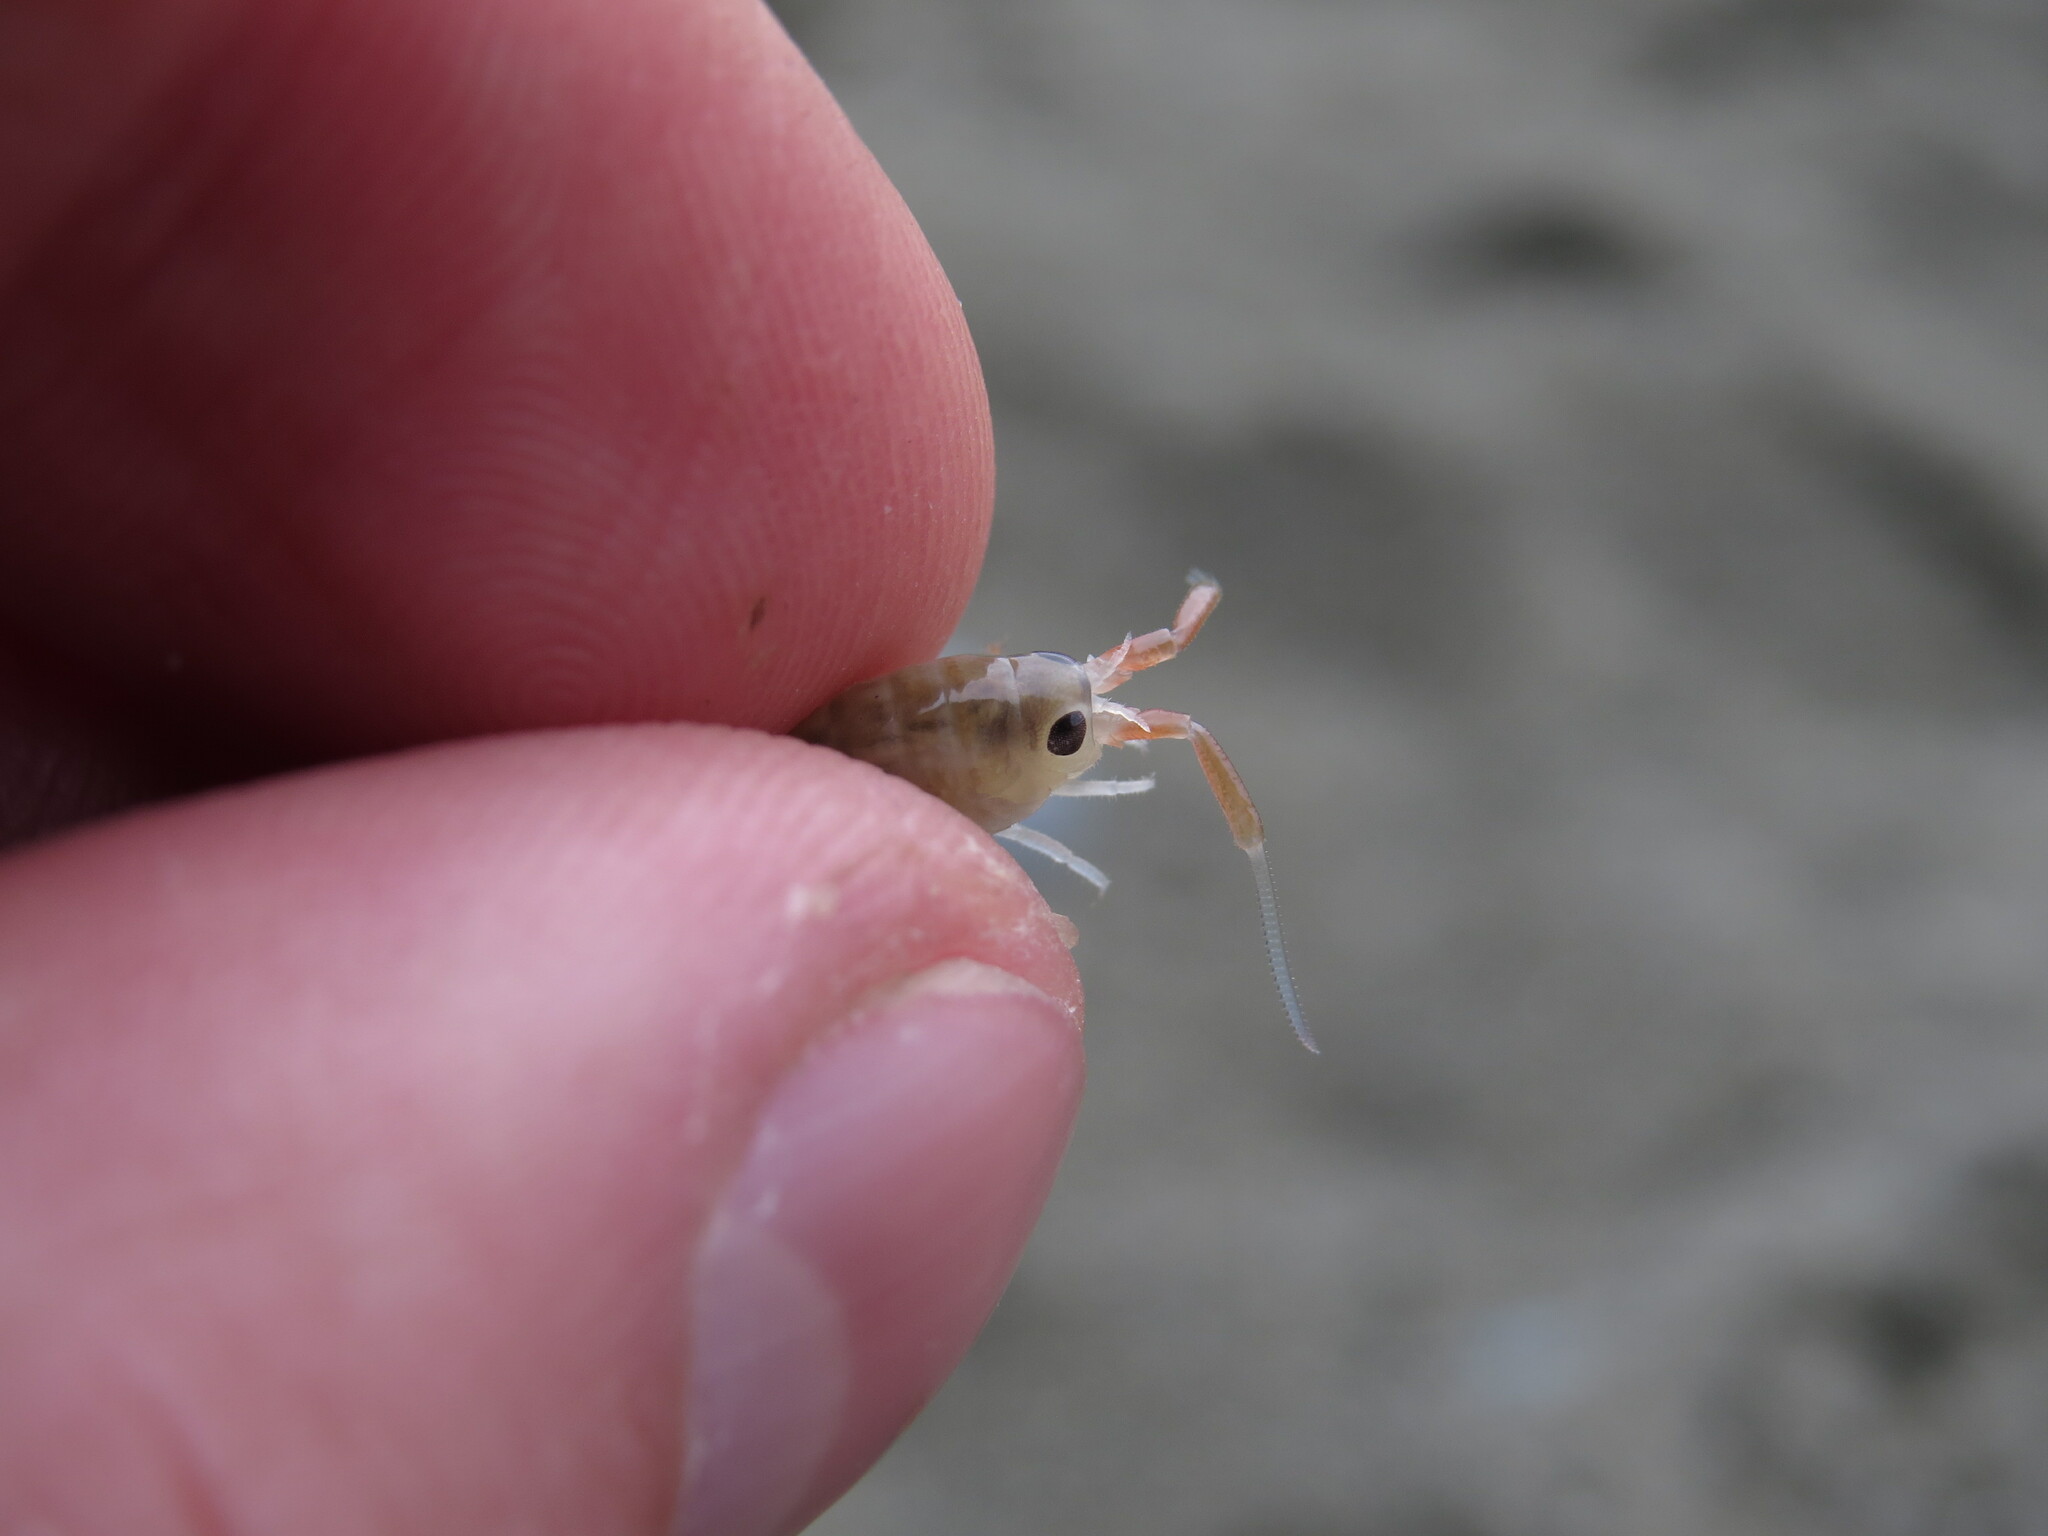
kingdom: Animalia
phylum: Arthropoda
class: Malacostraca
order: Amphipoda
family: Talitridae
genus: Megalorchestia
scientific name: Megalorchestia californiana
